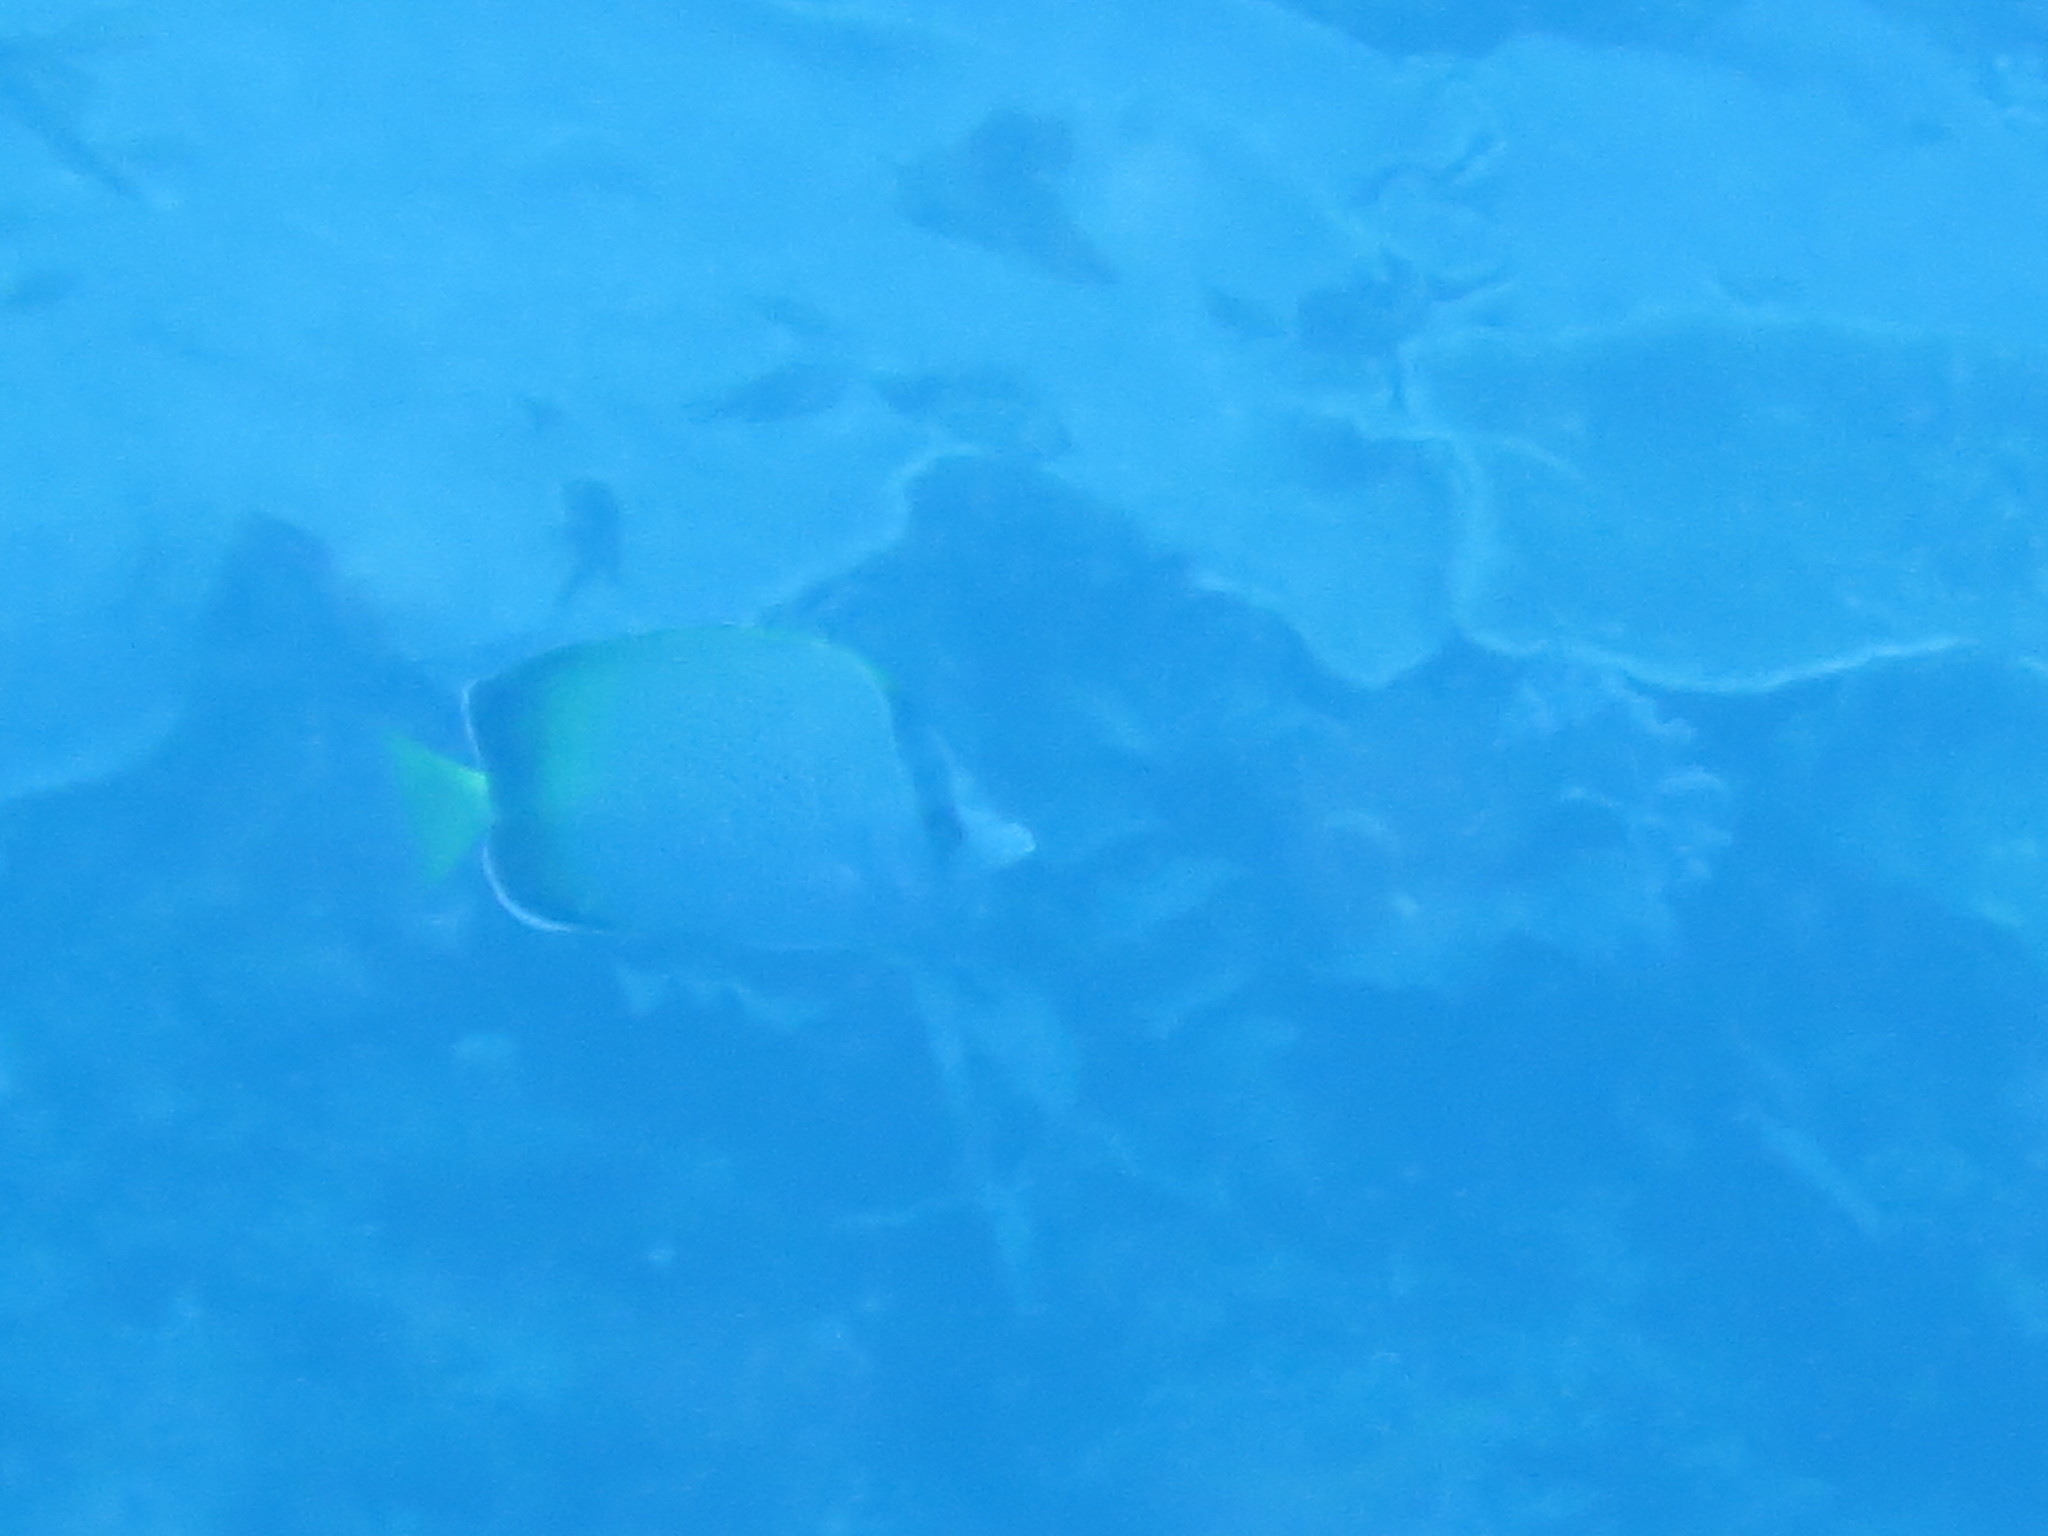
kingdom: Animalia
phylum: Chordata
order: Perciformes
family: Chaetodontidae
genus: Chaetodon
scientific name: Chaetodon dolosus
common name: African butterflyfish
